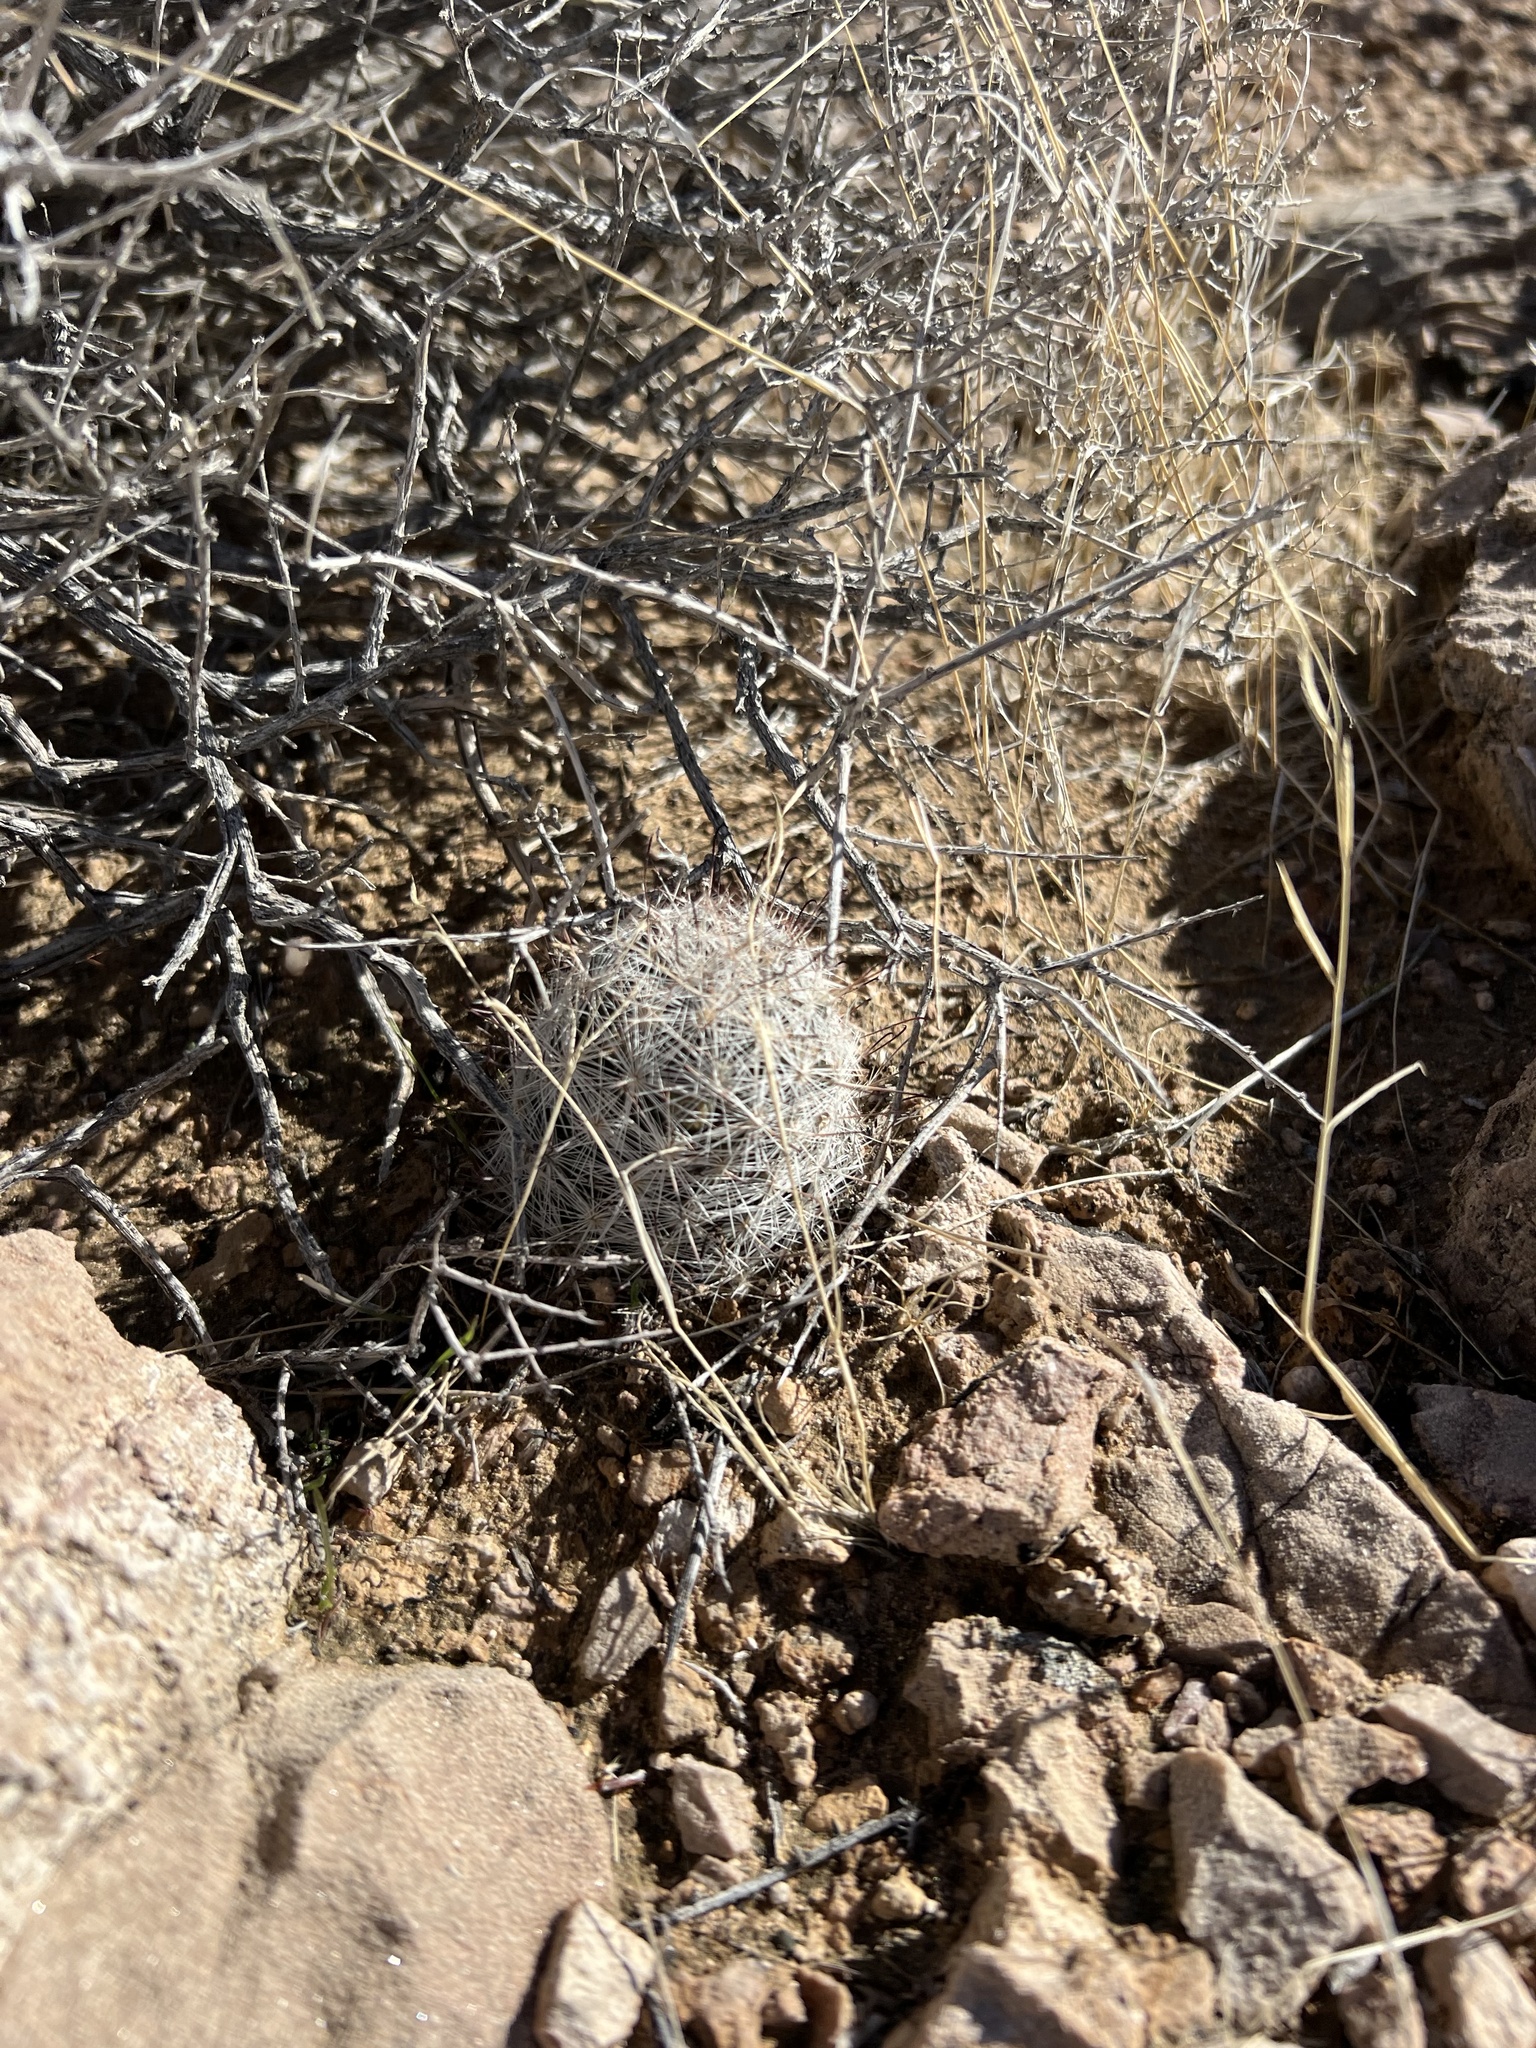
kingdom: Plantae
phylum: Tracheophyta
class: Magnoliopsida
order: Caryophyllales
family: Cactaceae
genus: Cochemiea
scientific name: Cochemiea tetrancistra
